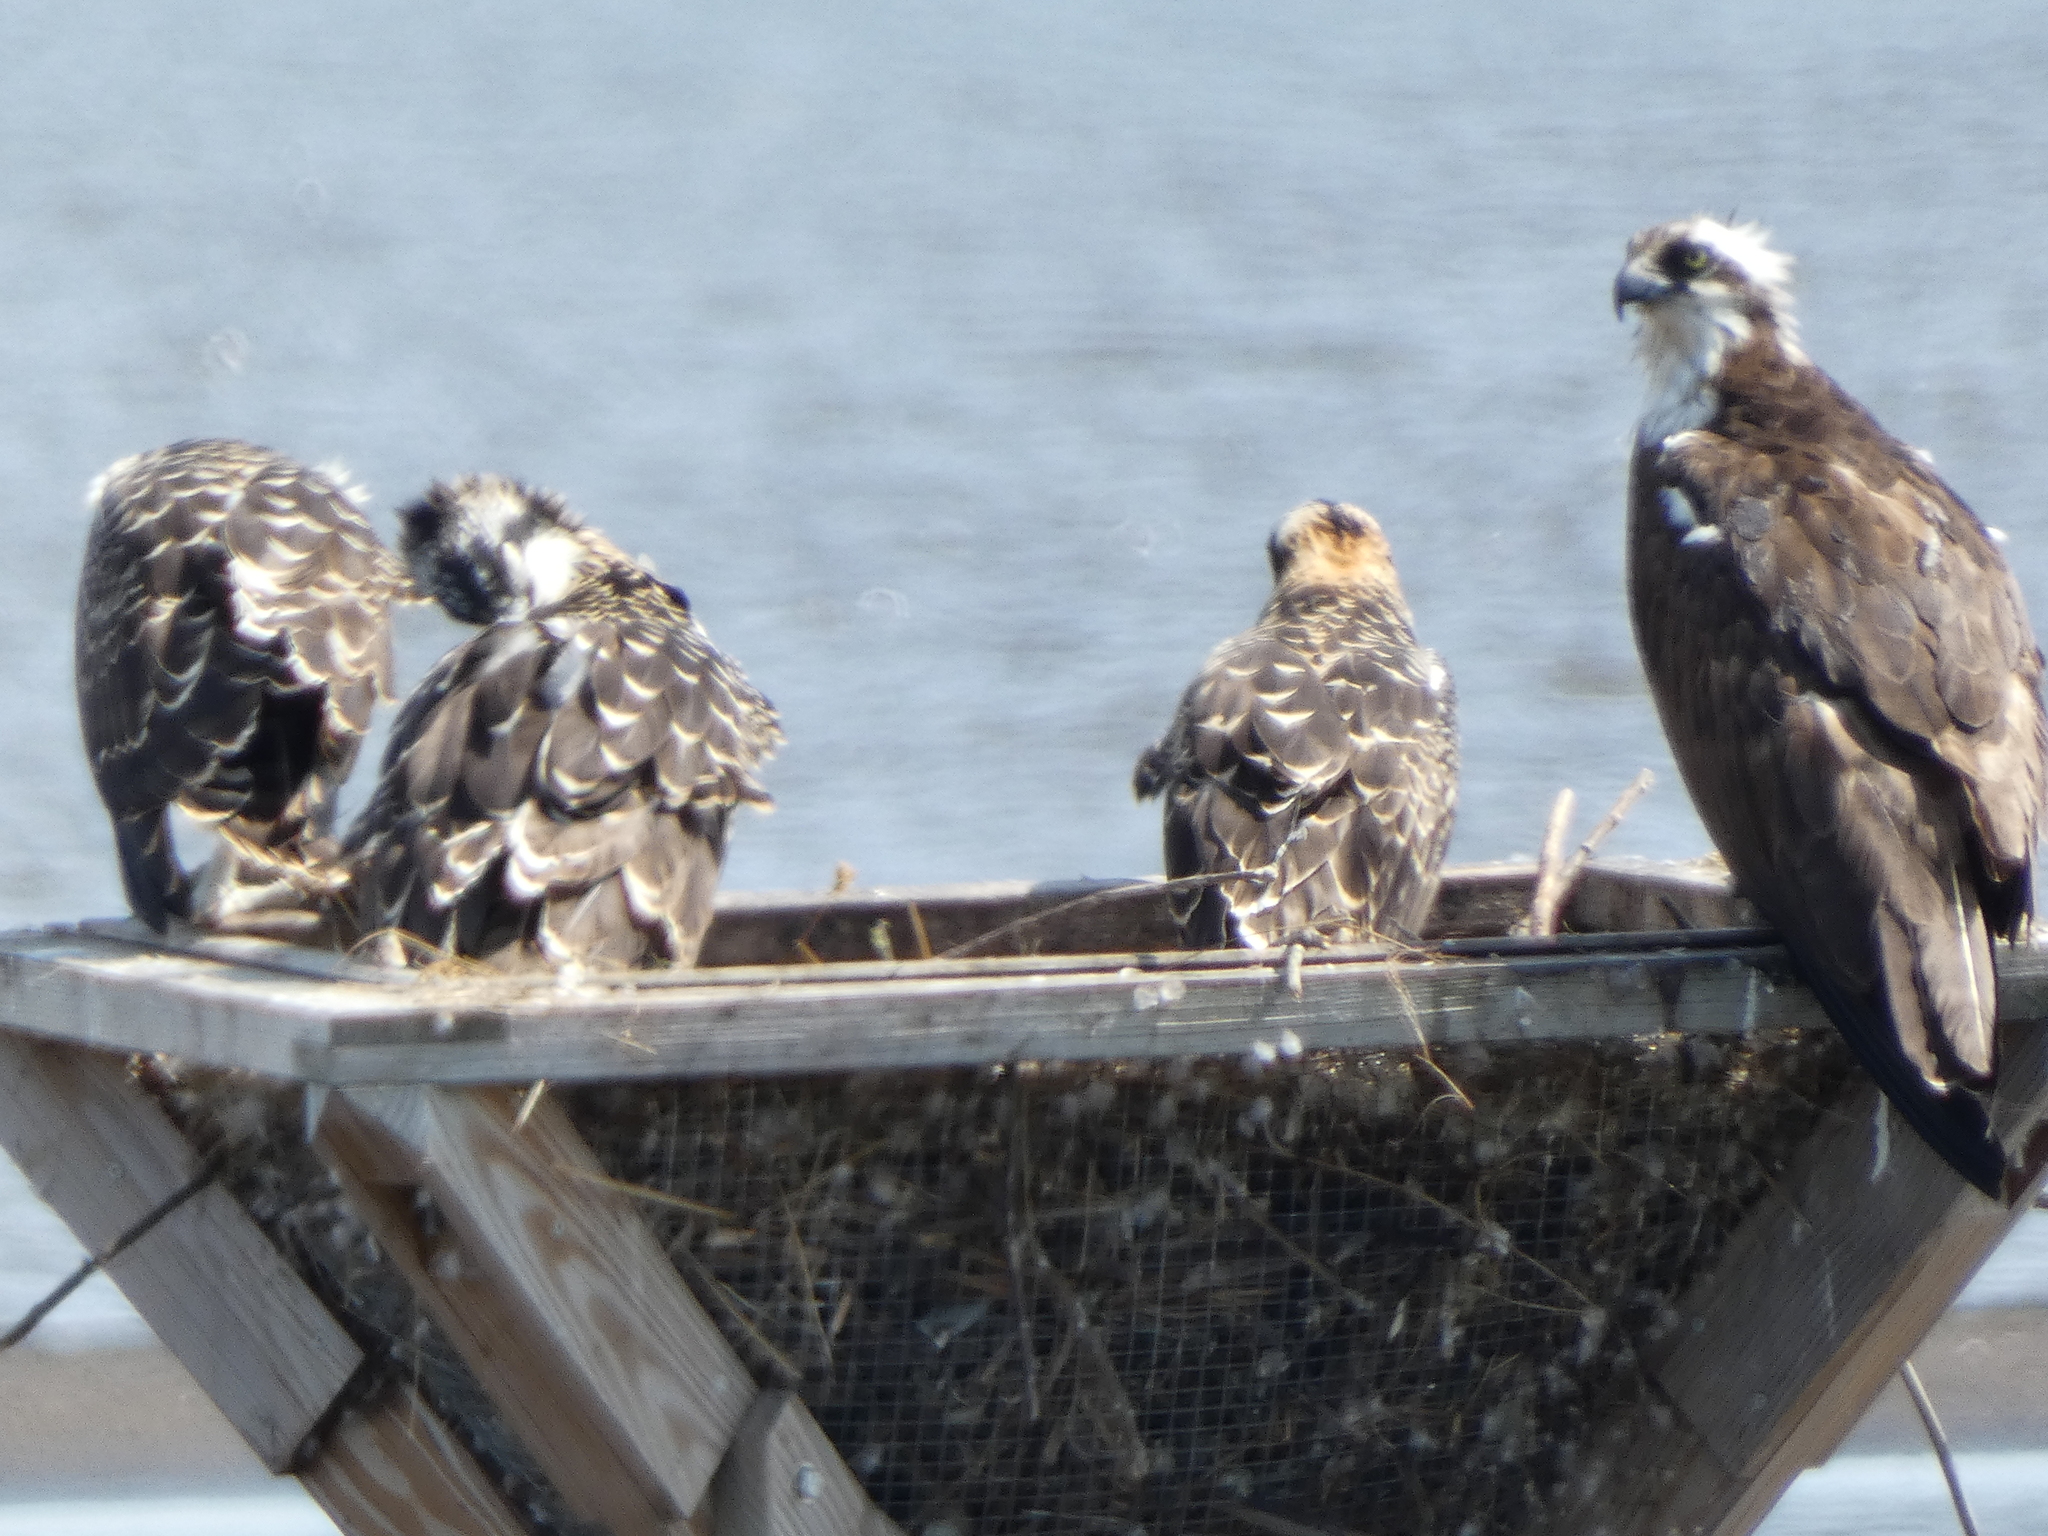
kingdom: Animalia
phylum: Chordata
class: Aves
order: Accipitriformes
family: Pandionidae
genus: Pandion
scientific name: Pandion haliaetus
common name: Osprey
